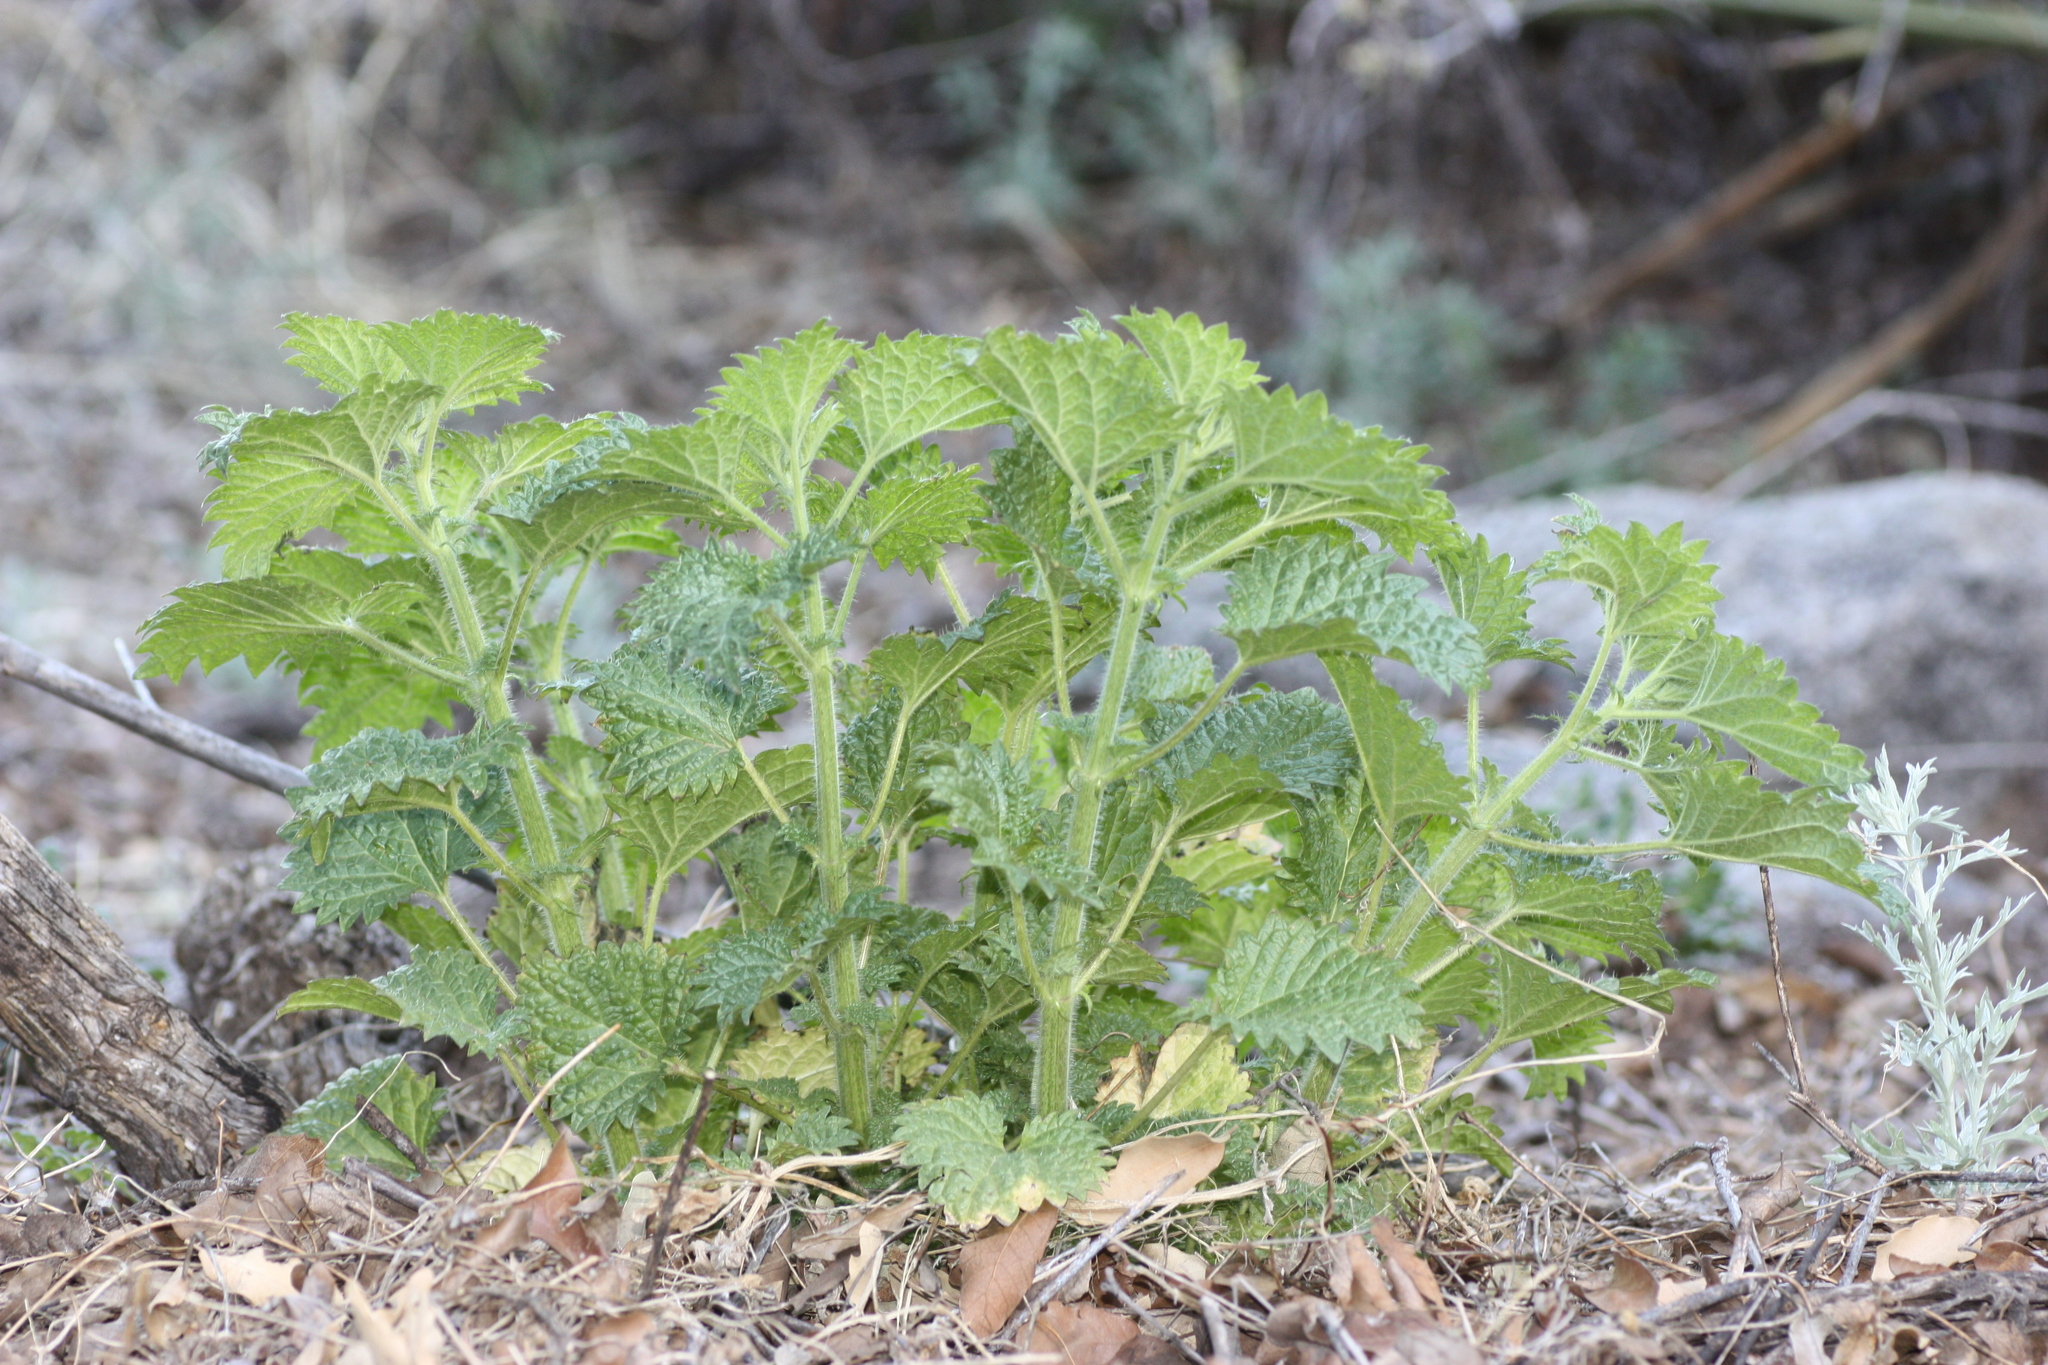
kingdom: Plantae
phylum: Tracheophyta
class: Magnoliopsida
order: Rosales
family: Urticaceae
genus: Urtica
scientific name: Urtica gracilenta
